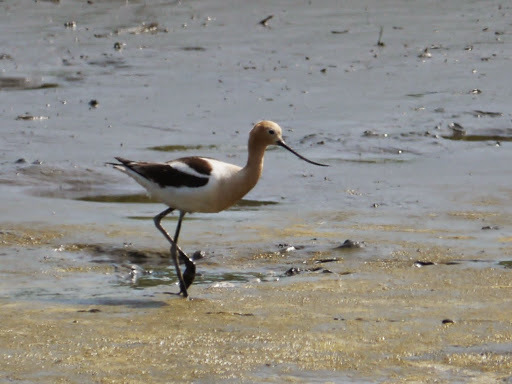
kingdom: Animalia
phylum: Chordata
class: Aves
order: Charadriiformes
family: Recurvirostridae
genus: Recurvirostra
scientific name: Recurvirostra americana
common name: American avocet
